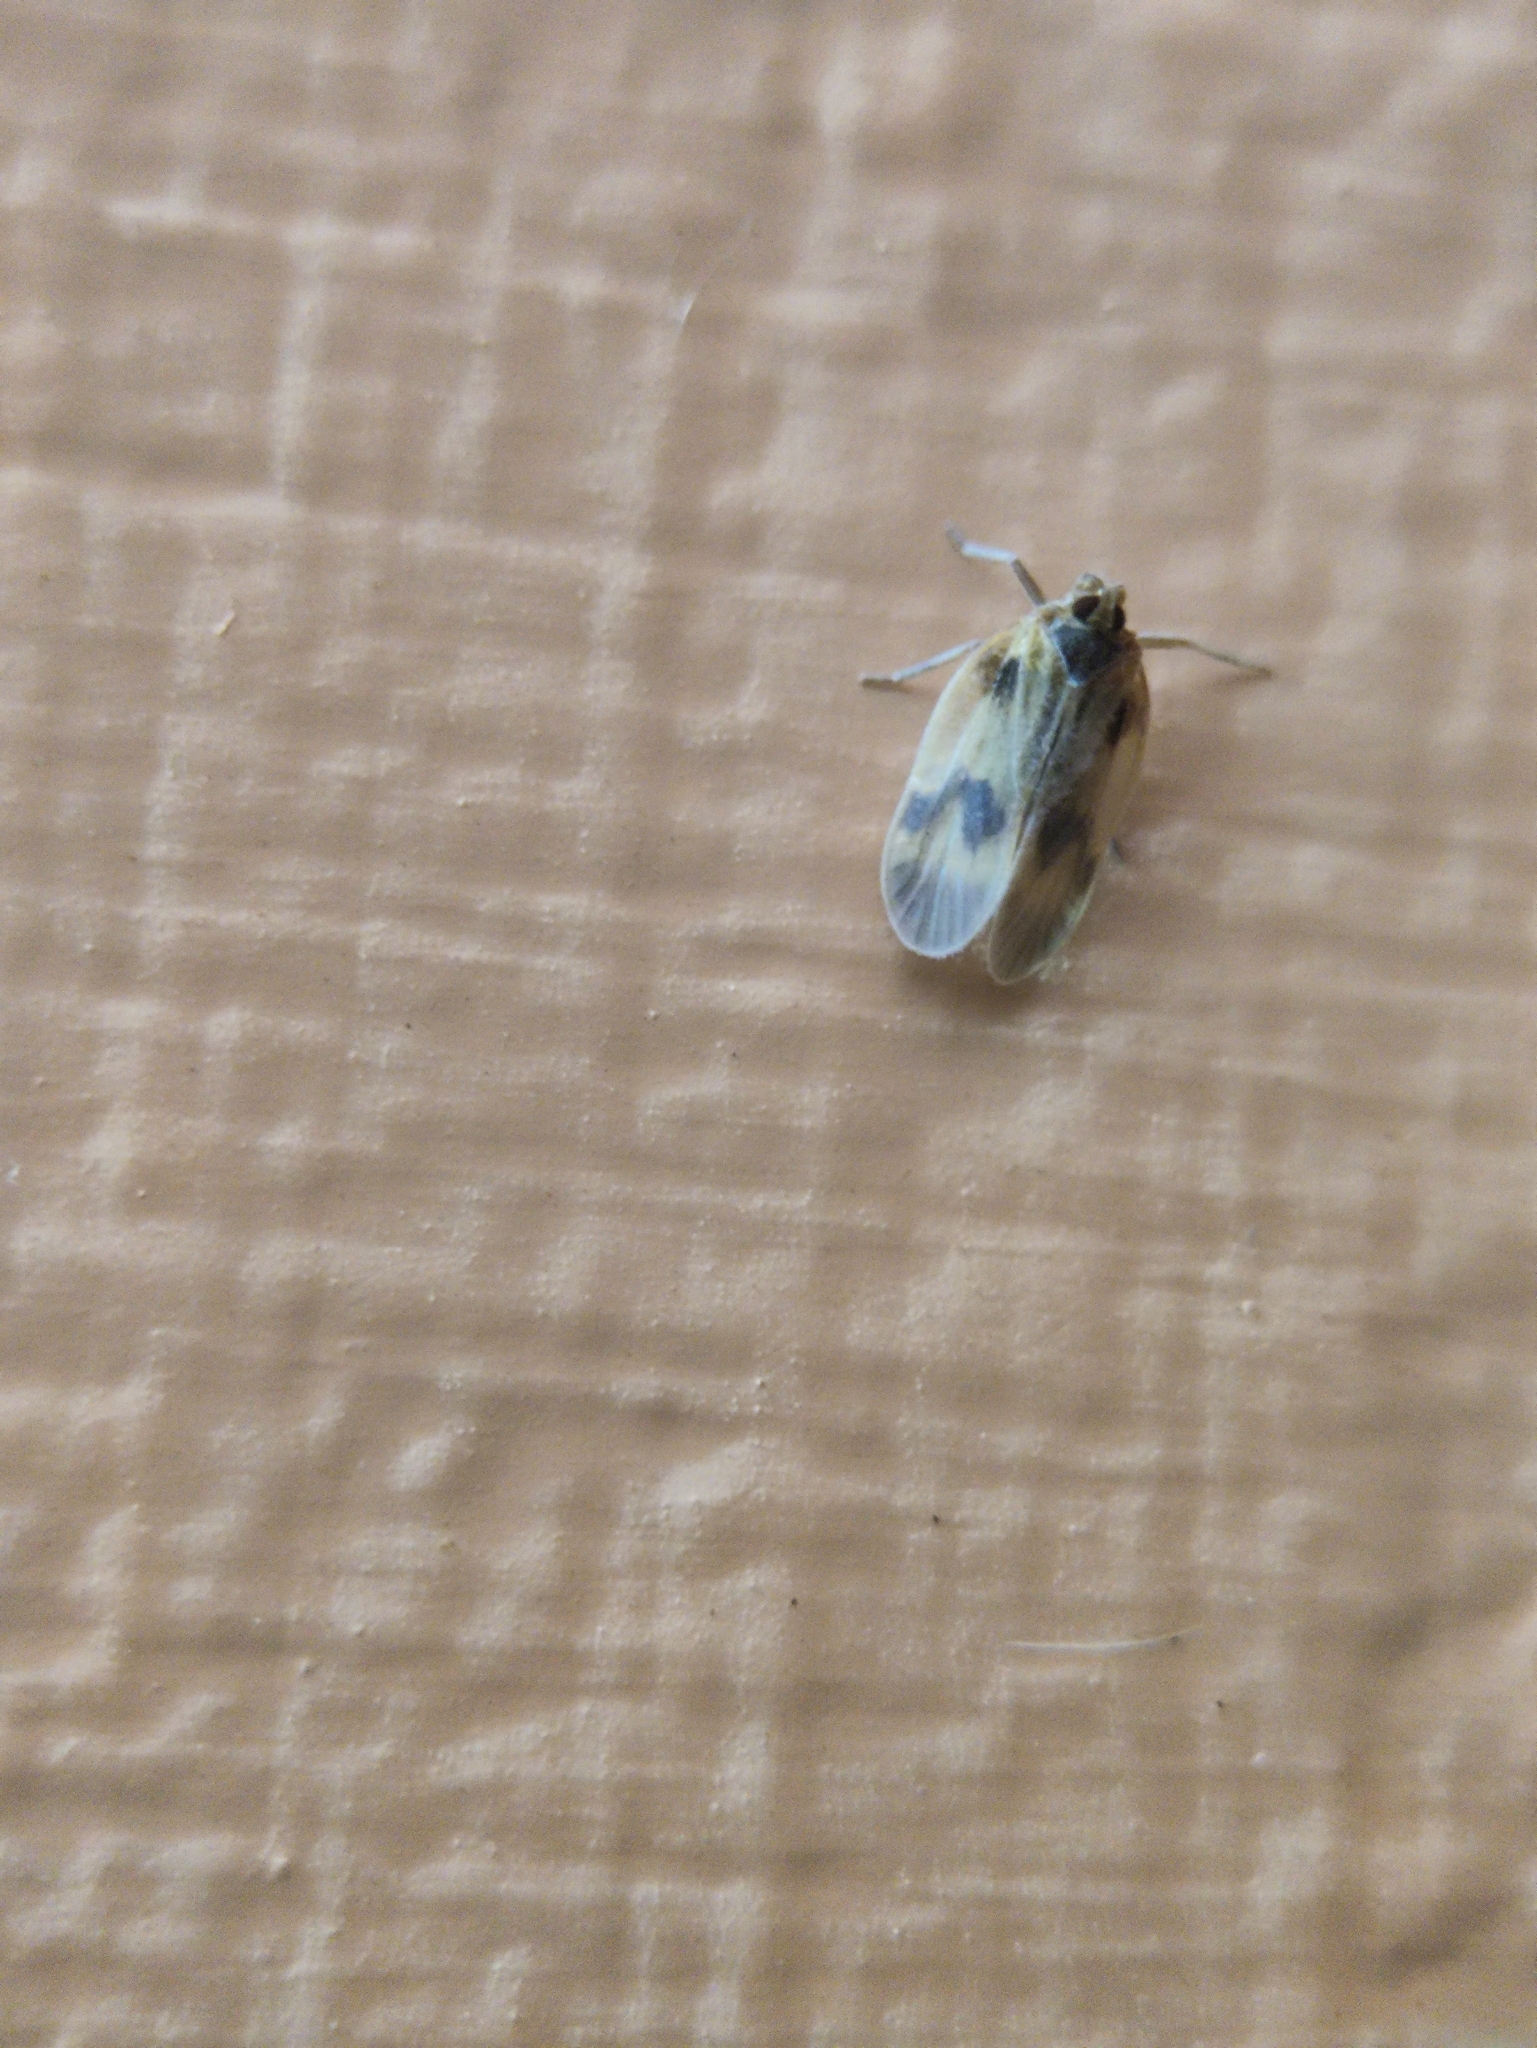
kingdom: Animalia
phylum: Arthropoda
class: Insecta
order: Hemiptera
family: Kinnaridae
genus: Kinnara
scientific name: Kinnara maculata
